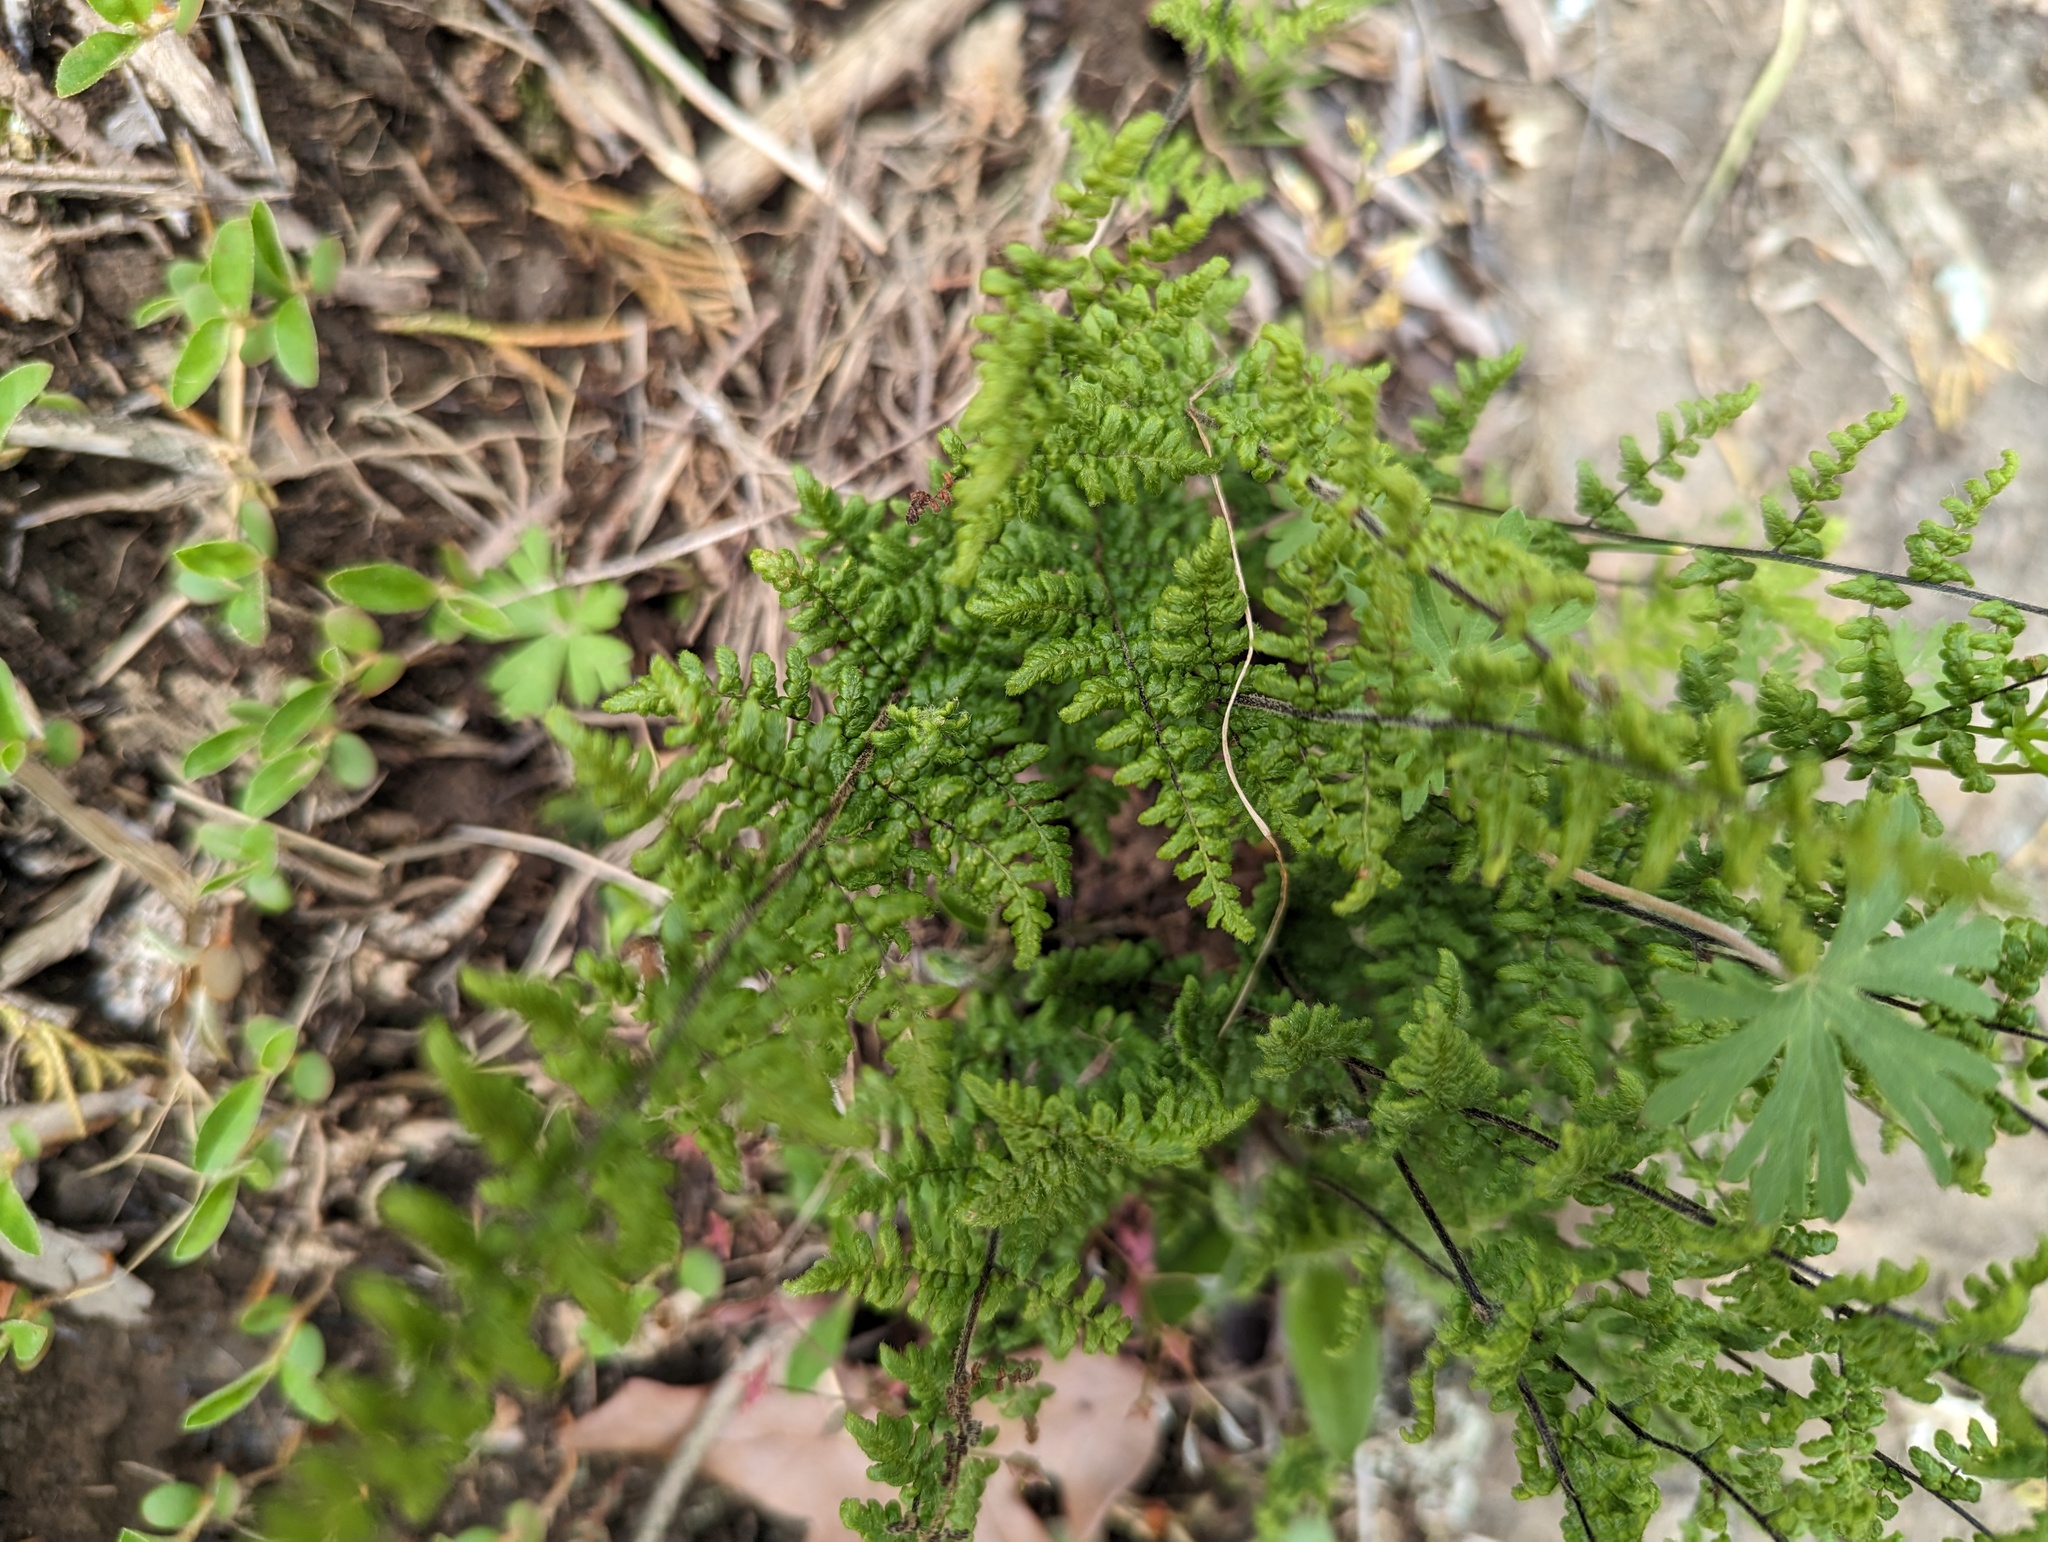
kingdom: Plantae
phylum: Tracheophyta
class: Polypodiopsida
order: Polypodiales
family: Pteridaceae
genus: Myriopteris
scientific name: Myriopteris lanosa
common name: Hairy lip fern
